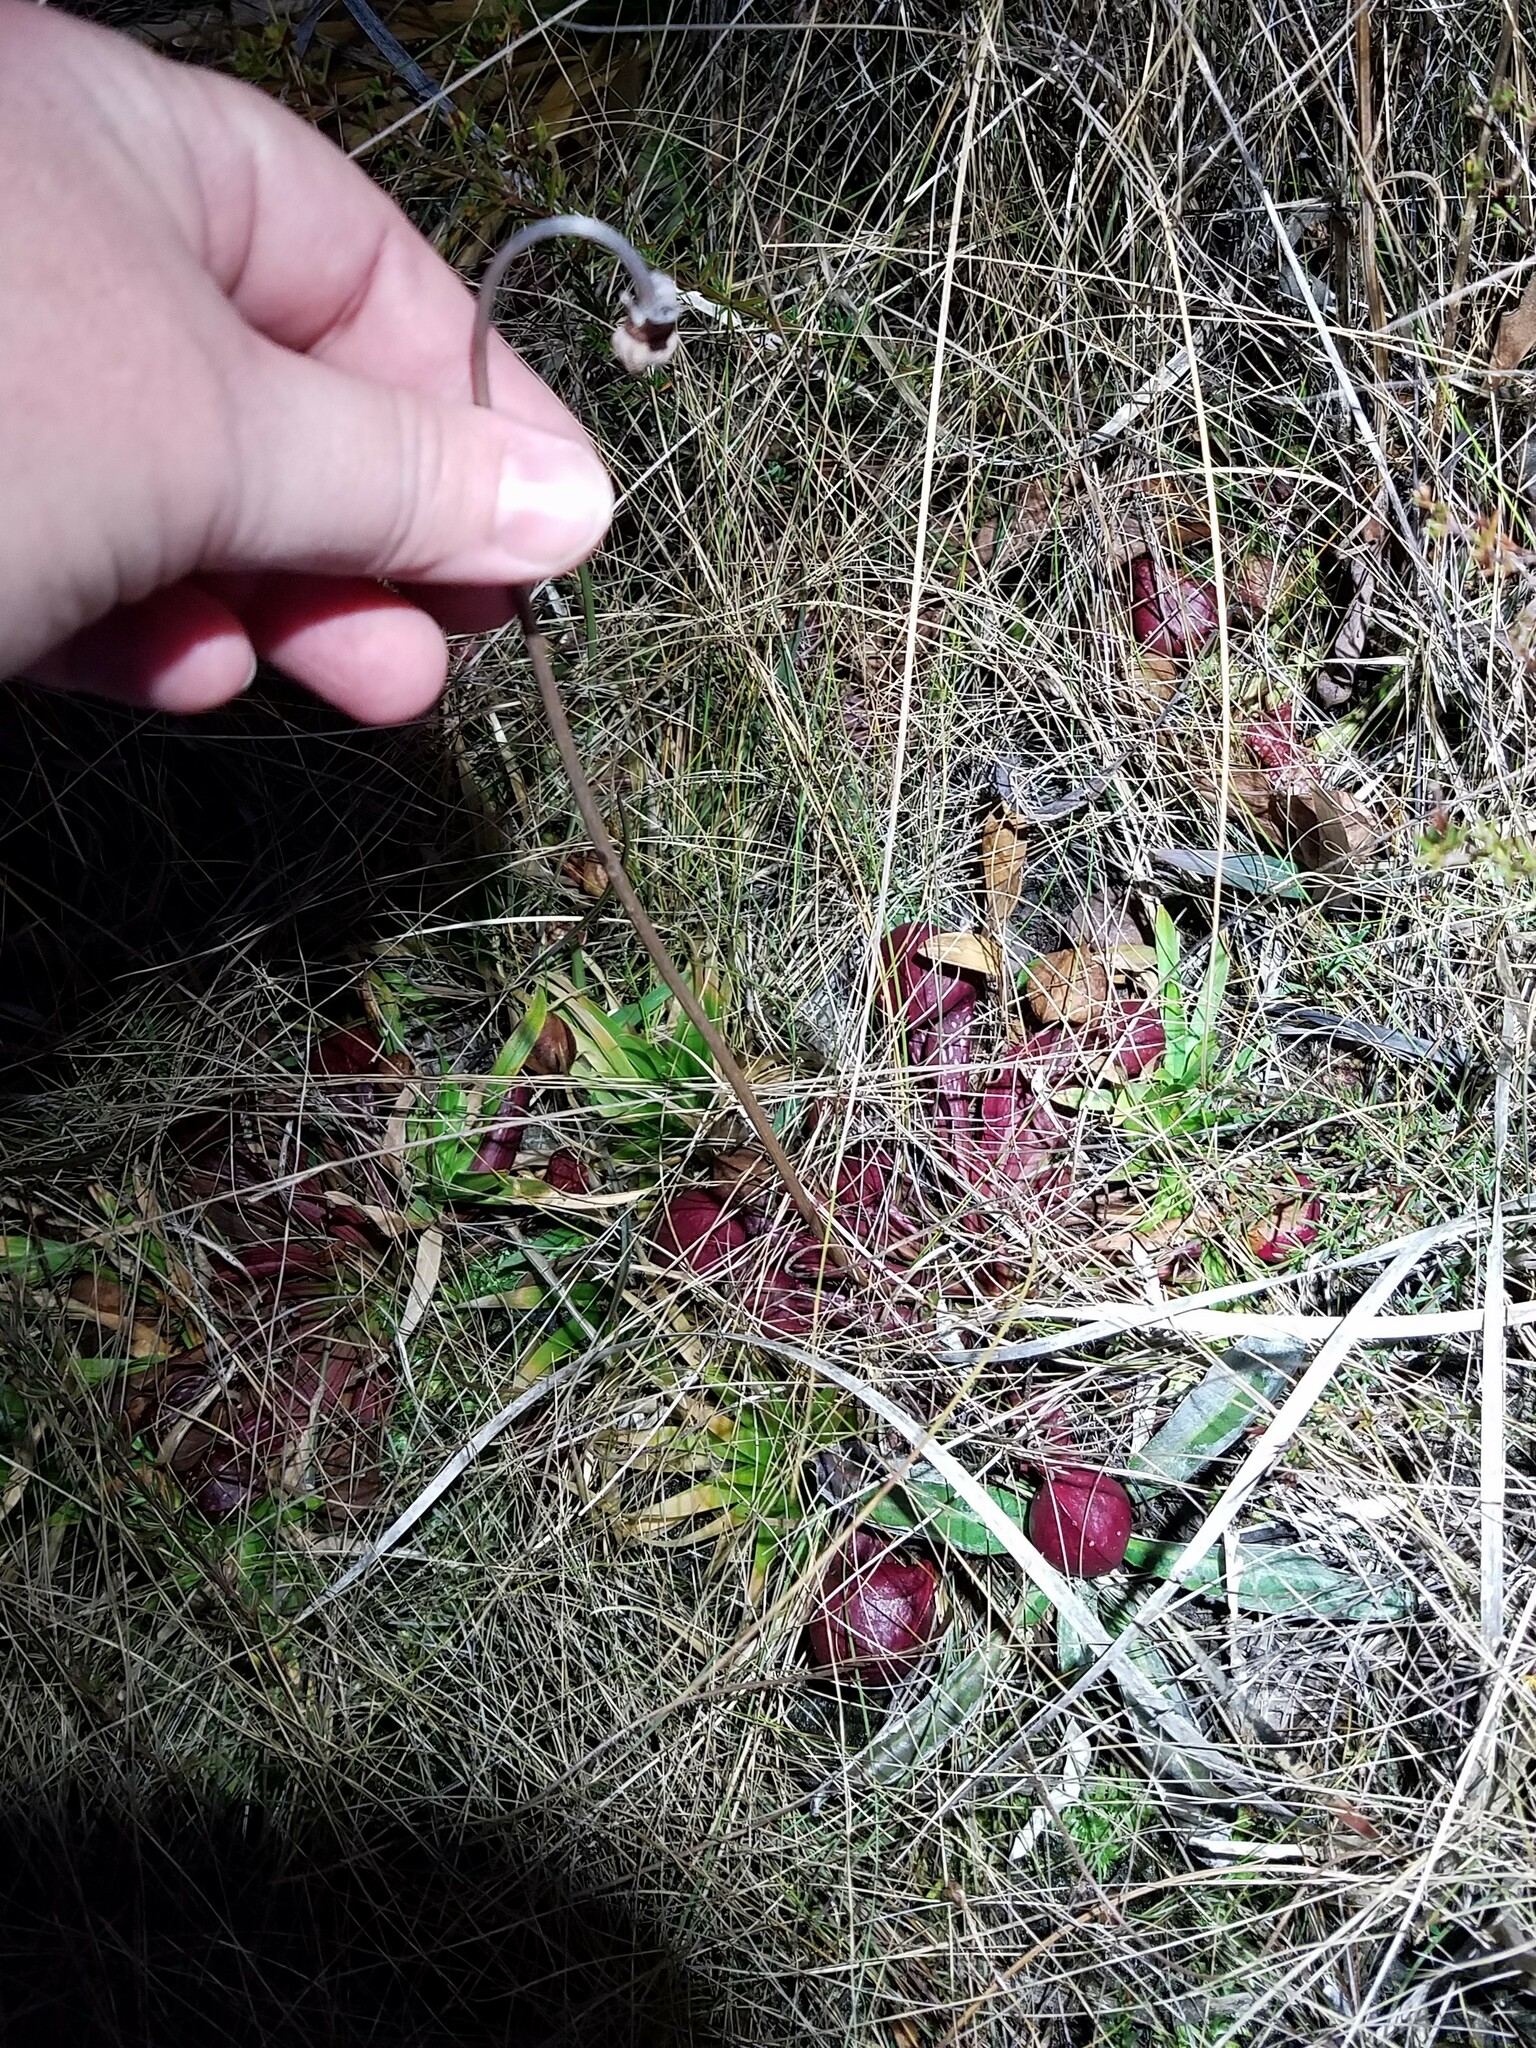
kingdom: Plantae
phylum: Tracheophyta
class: Magnoliopsida
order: Ericales
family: Sarraceniaceae
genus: Sarracenia
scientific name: Sarracenia psittacina
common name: Parrot pitcherplant
